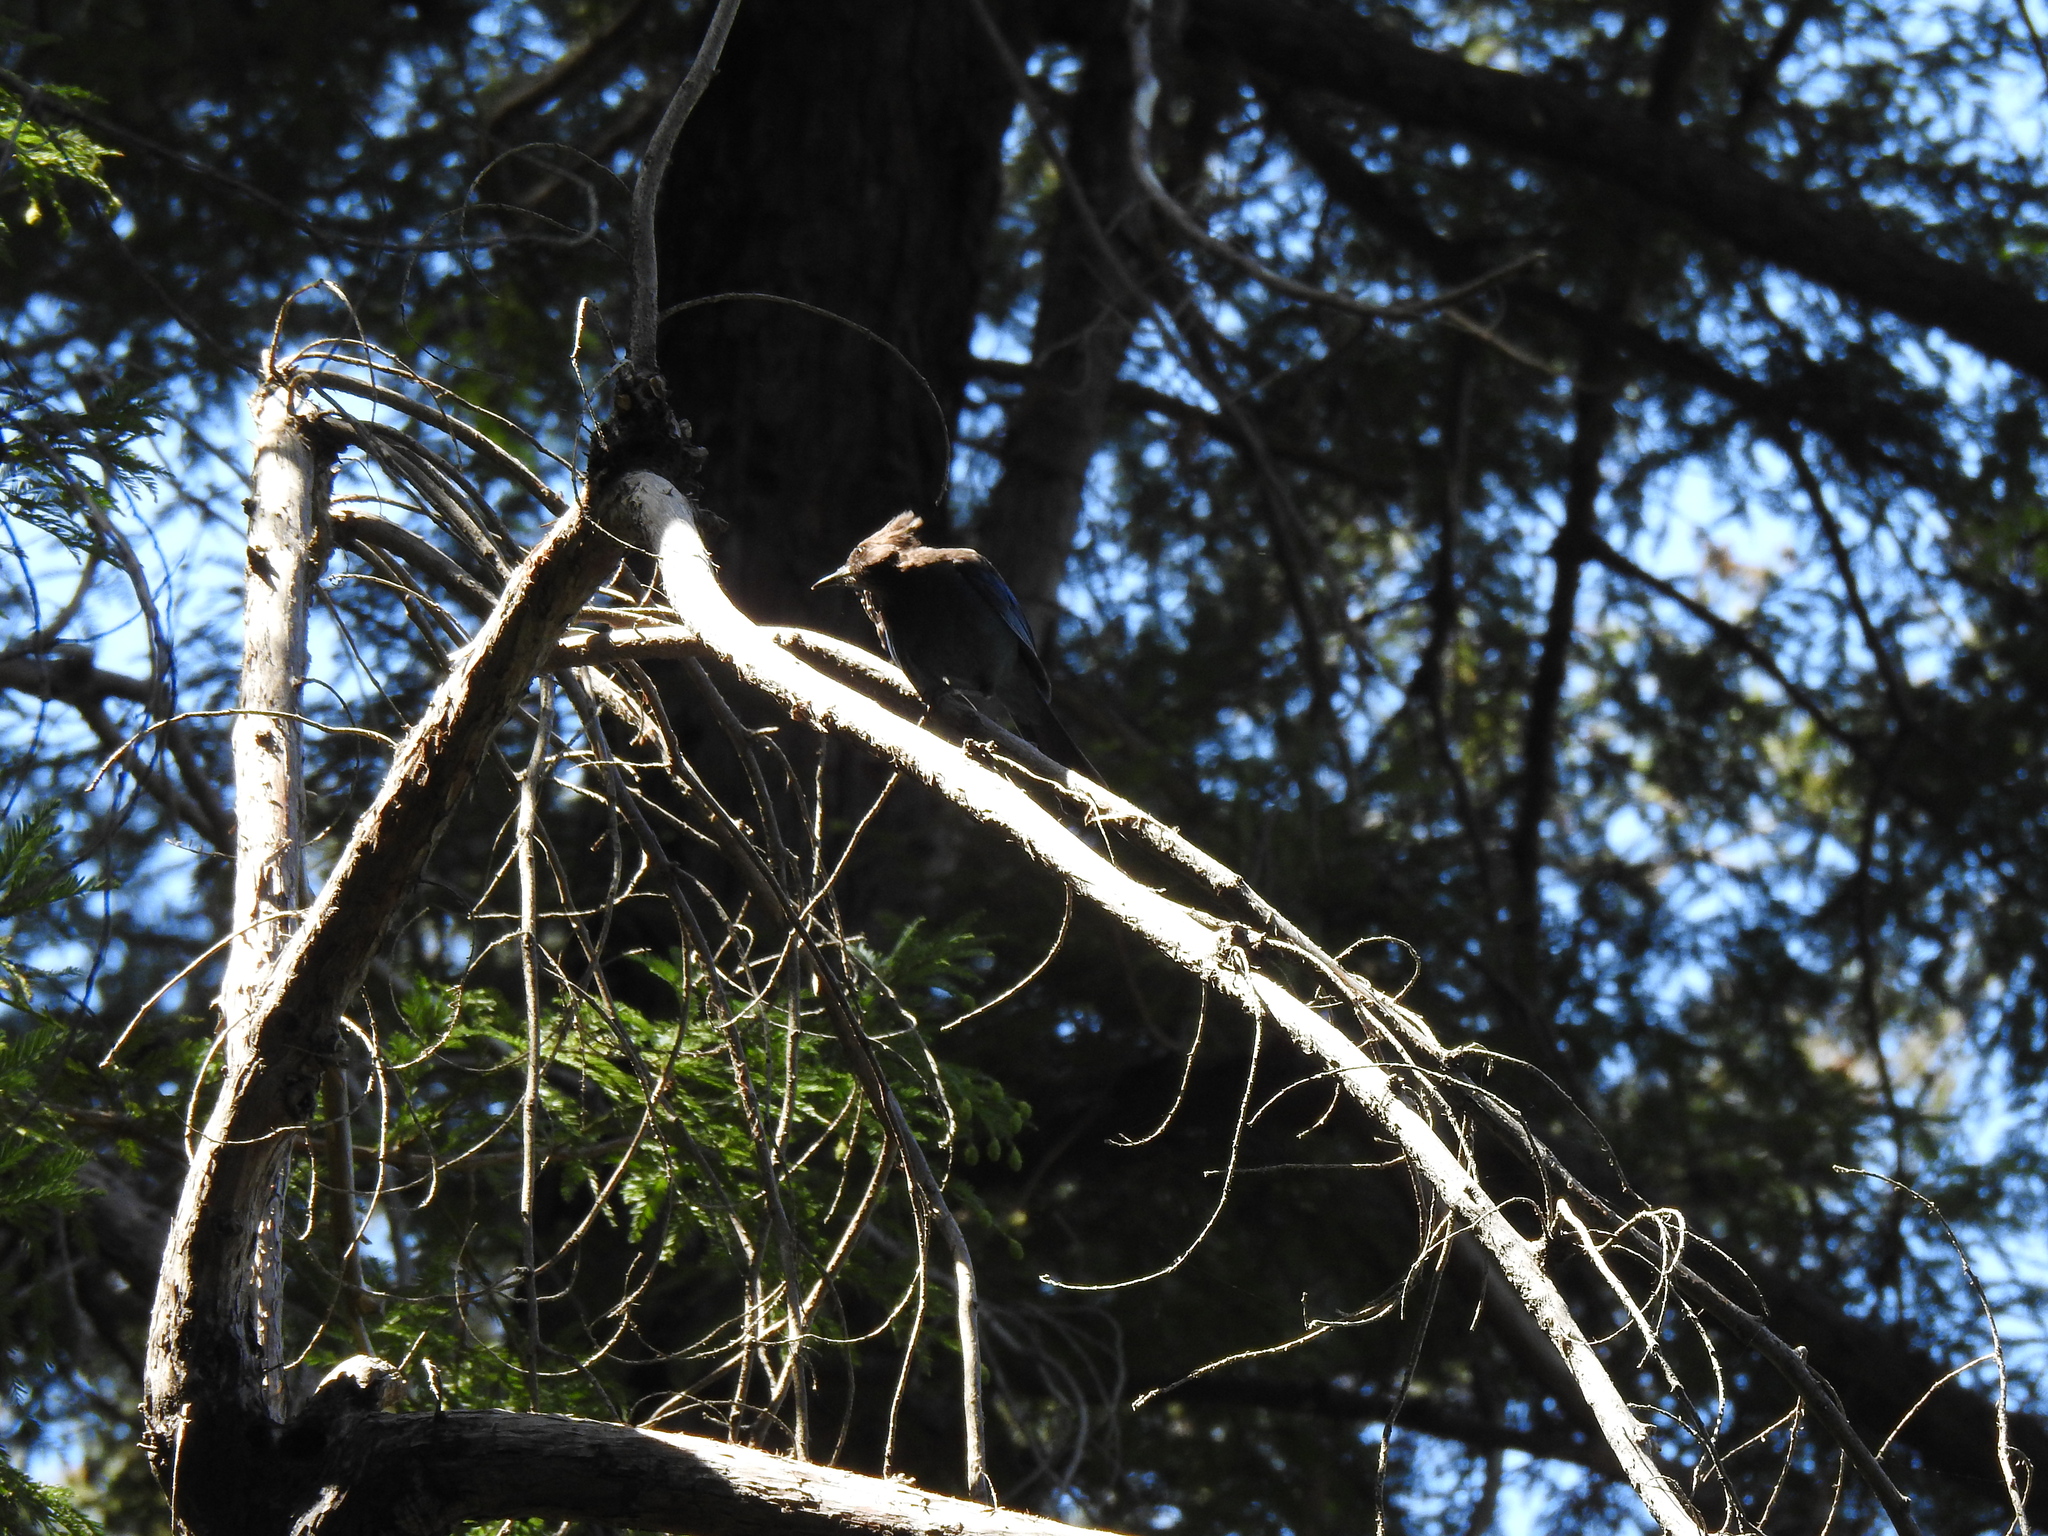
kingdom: Animalia
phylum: Chordata
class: Aves
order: Passeriformes
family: Corvidae
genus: Cyanocitta
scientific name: Cyanocitta stelleri
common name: Steller's jay
